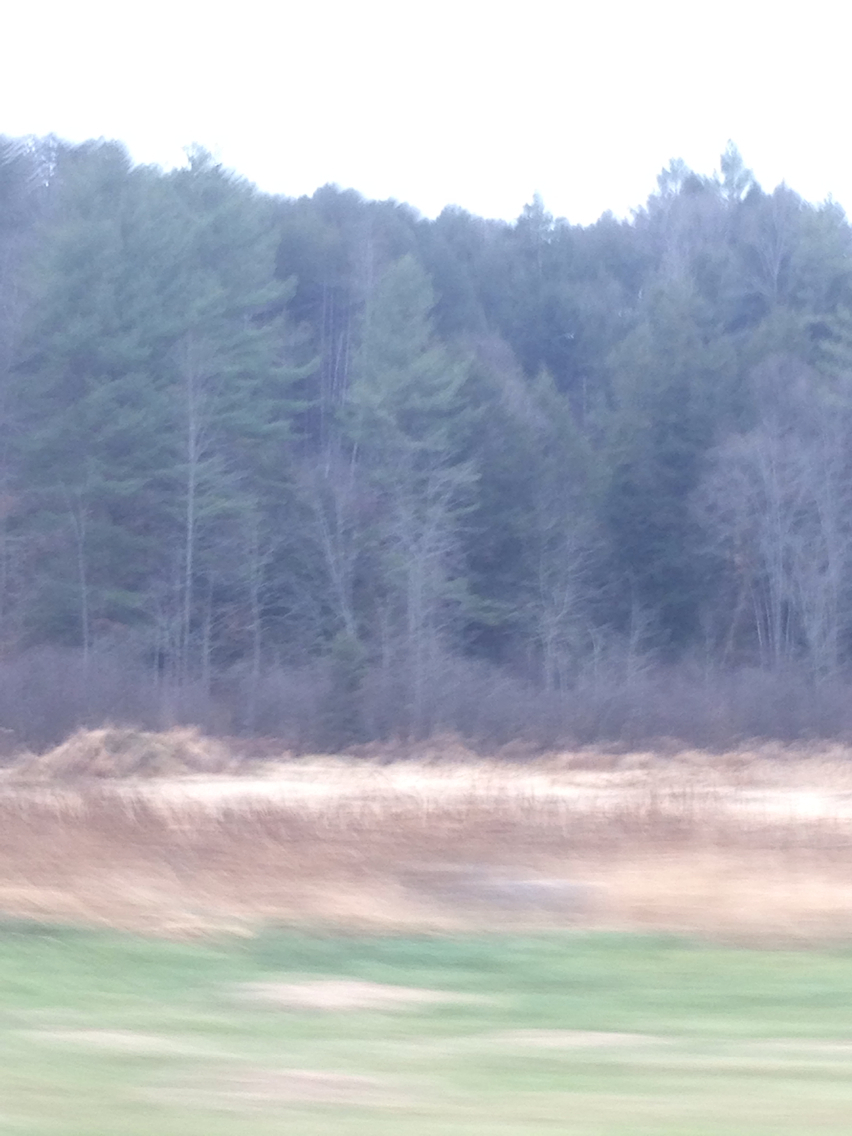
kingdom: Plantae
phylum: Tracheophyta
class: Pinopsida
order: Pinales
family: Pinaceae
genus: Pinus
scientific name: Pinus strobus
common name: Weymouth pine
